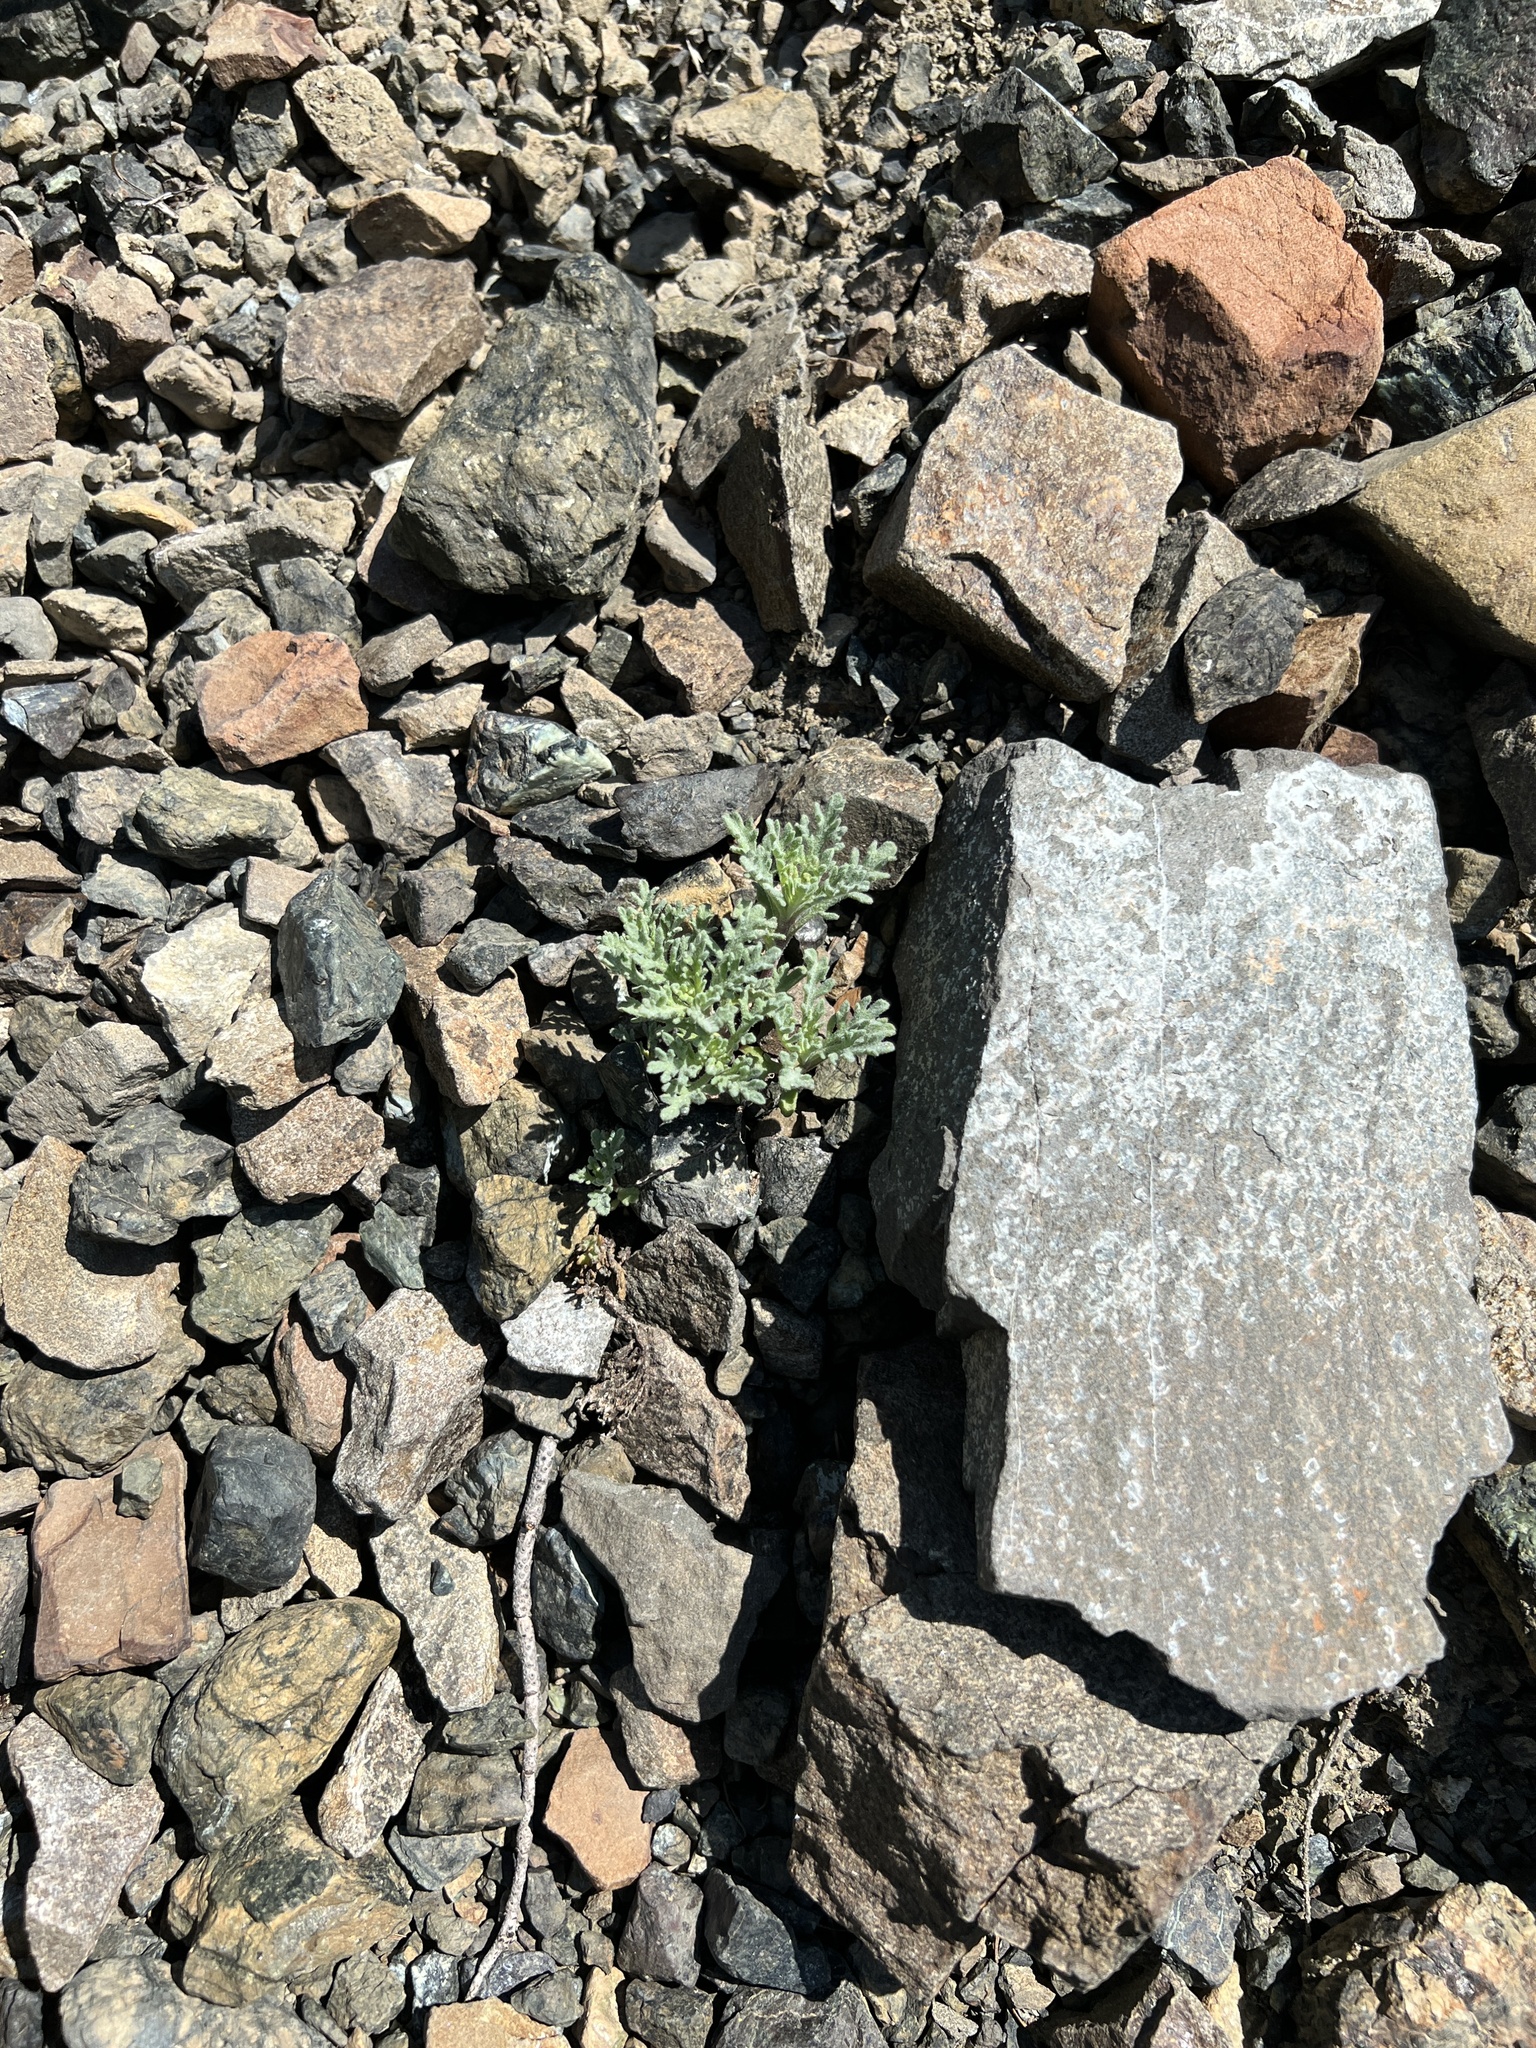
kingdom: Plantae
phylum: Tracheophyta
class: Magnoliopsida
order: Asterales
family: Asteraceae
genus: Chaenactis
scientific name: Chaenactis thompsonii
